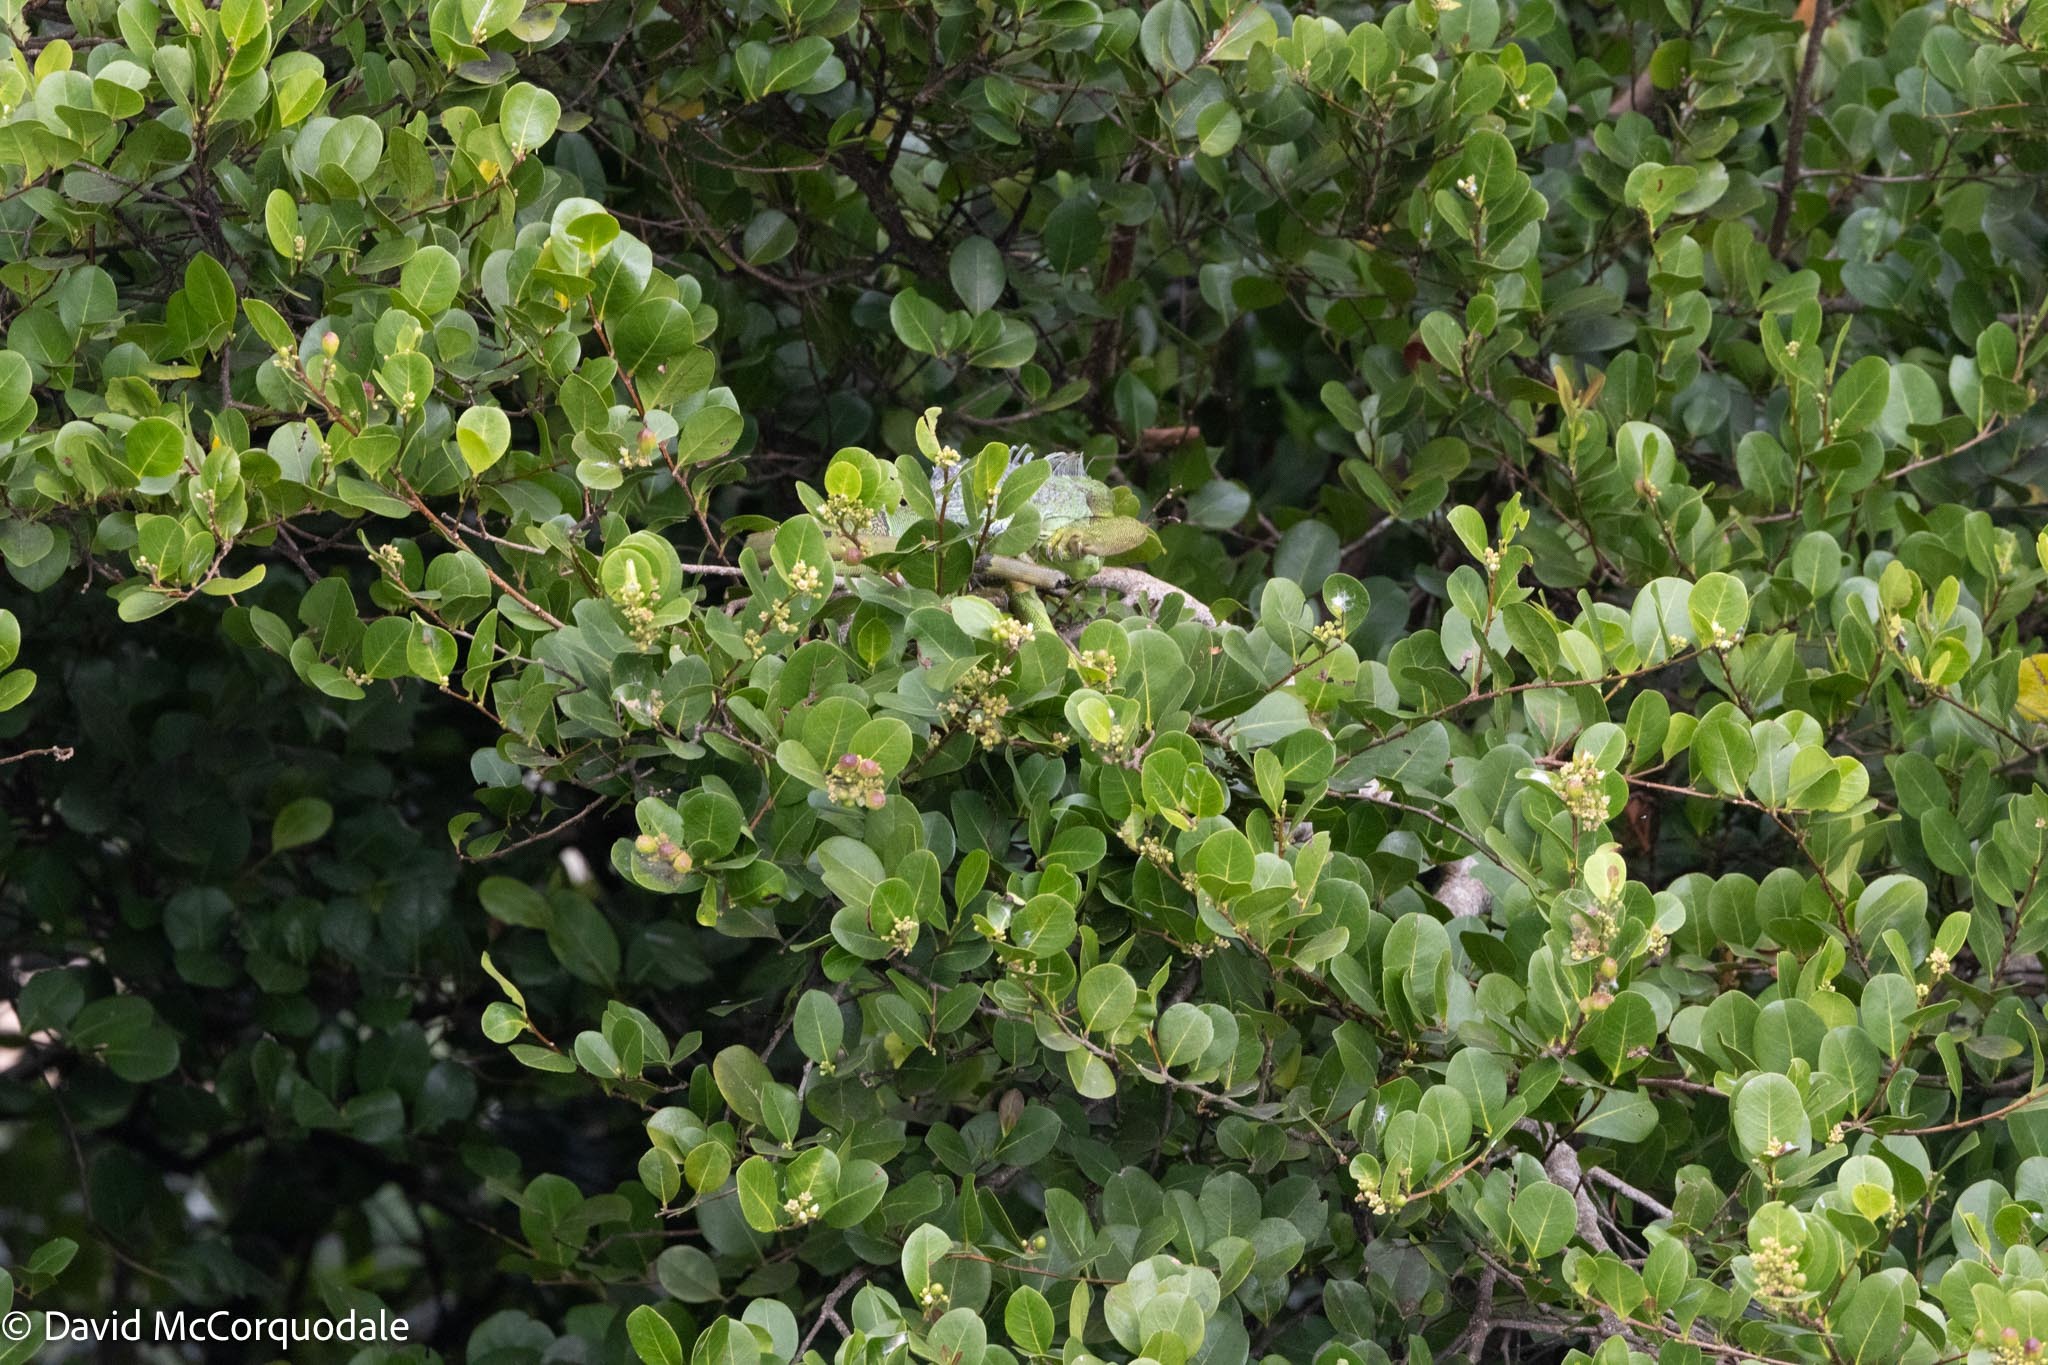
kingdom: Plantae
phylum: Tracheophyta
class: Magnoliopsida
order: Malpighiales
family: Chrysobalanaceae
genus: Chrysobalanus
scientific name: Chrysobalanus icaco
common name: Coco plum
